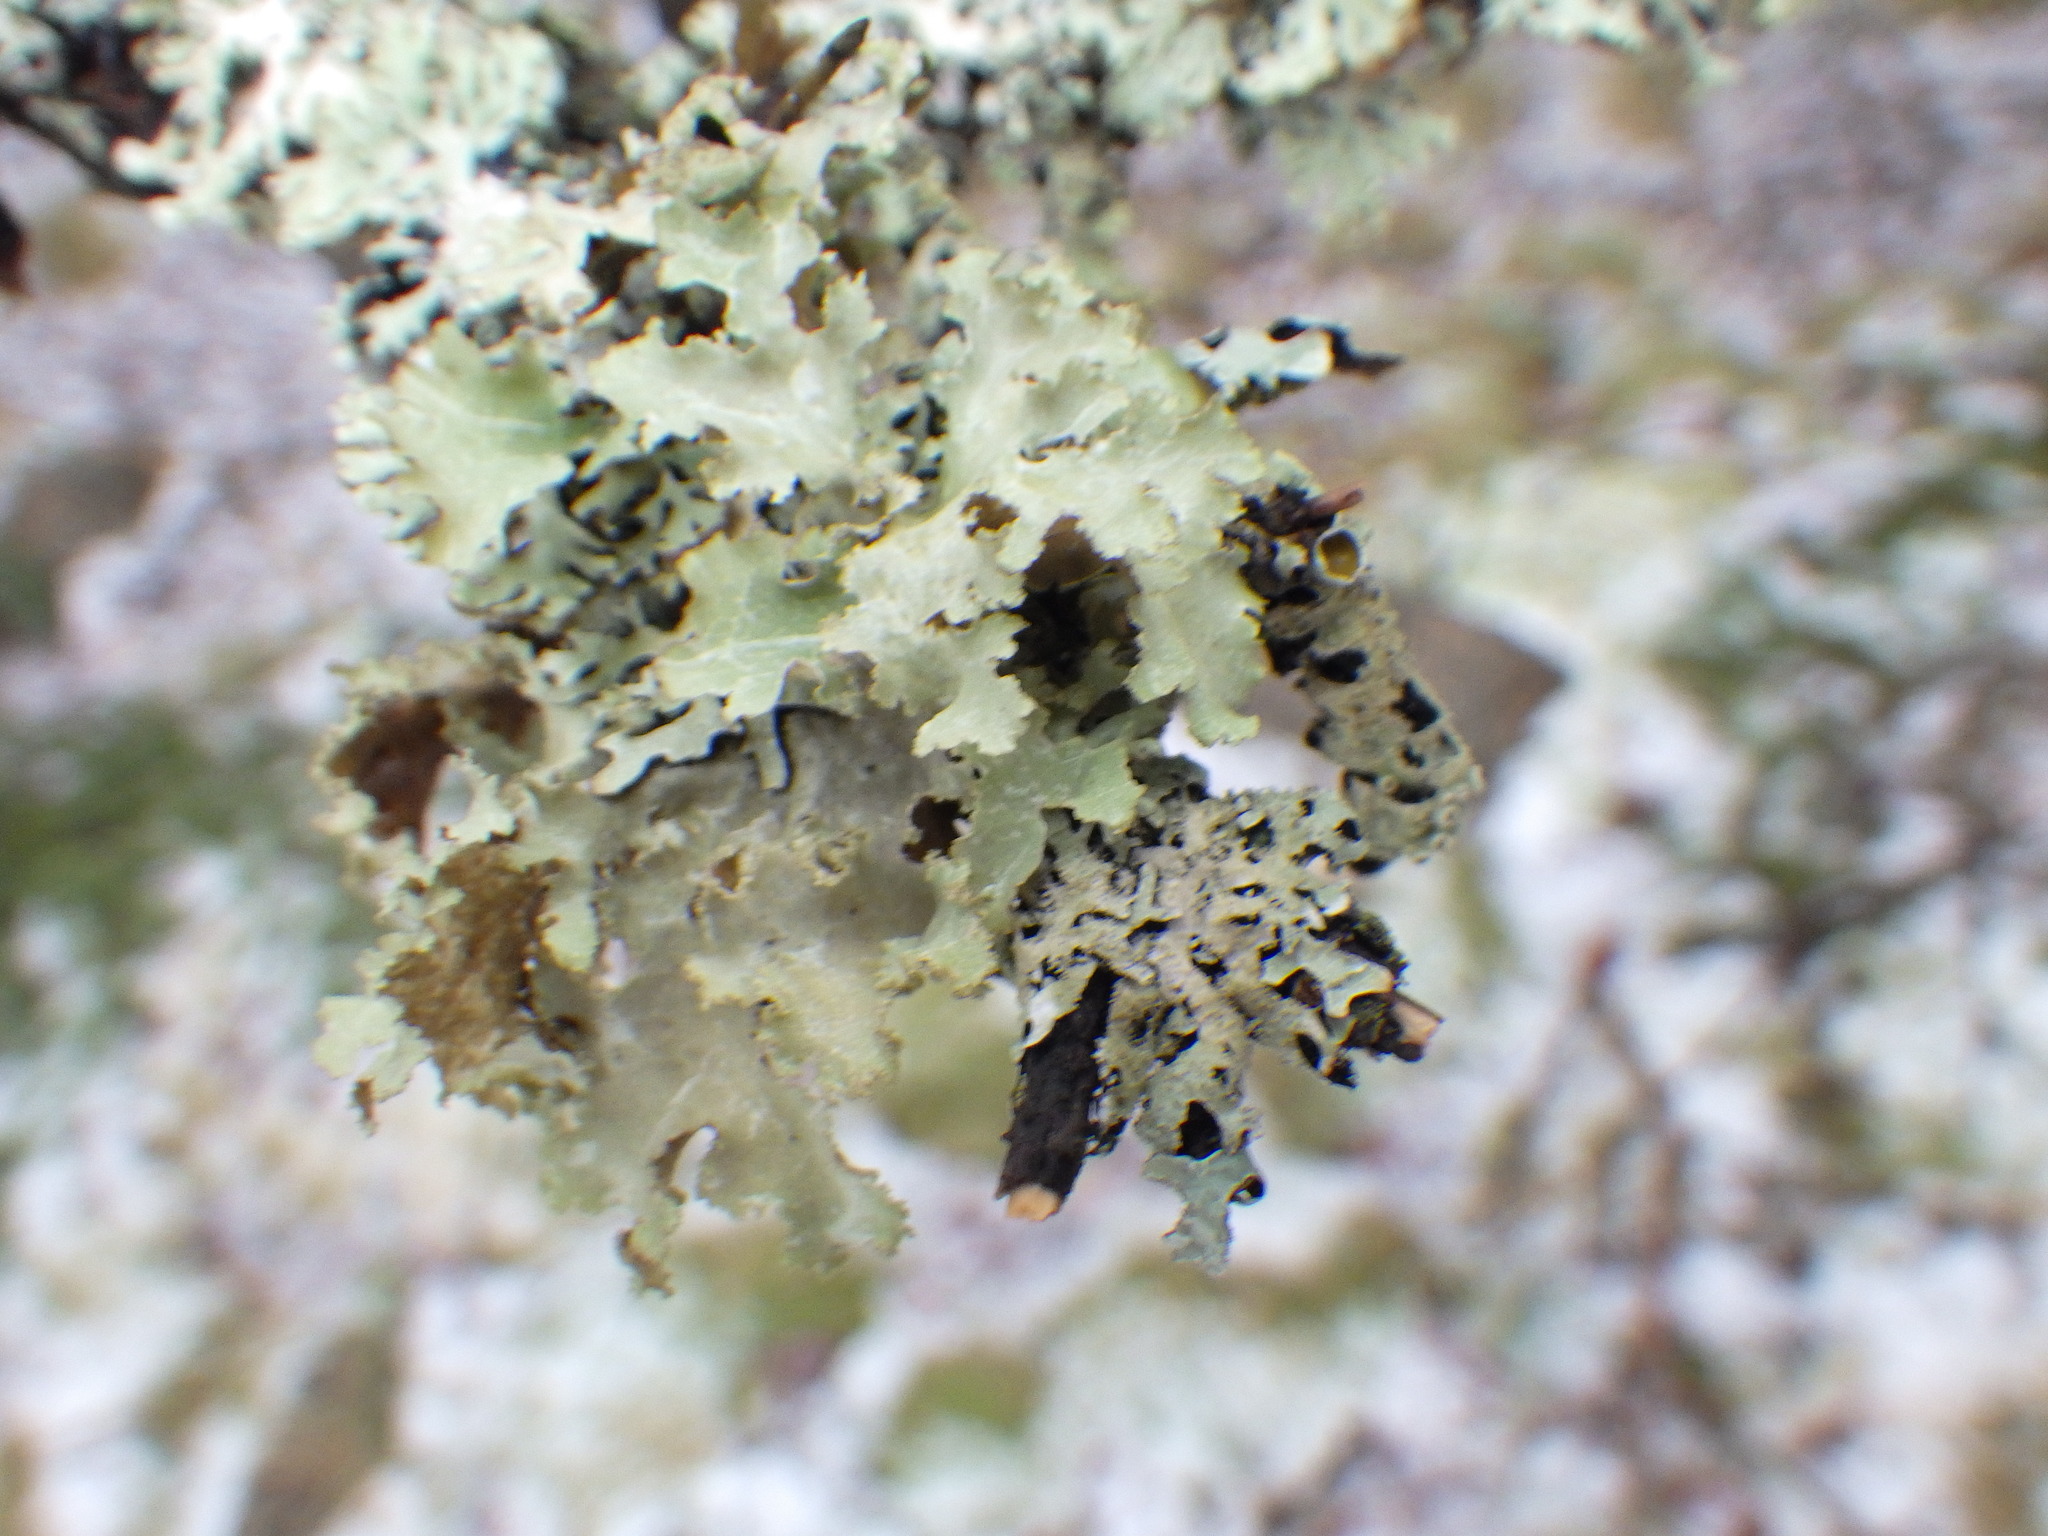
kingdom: Fungi
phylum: Ascomycota
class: Lecanoromycetes
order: Lecanorales
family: Parmeliaceae
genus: Platismatia
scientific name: Platismatia glauca
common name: Varied rag lichen
